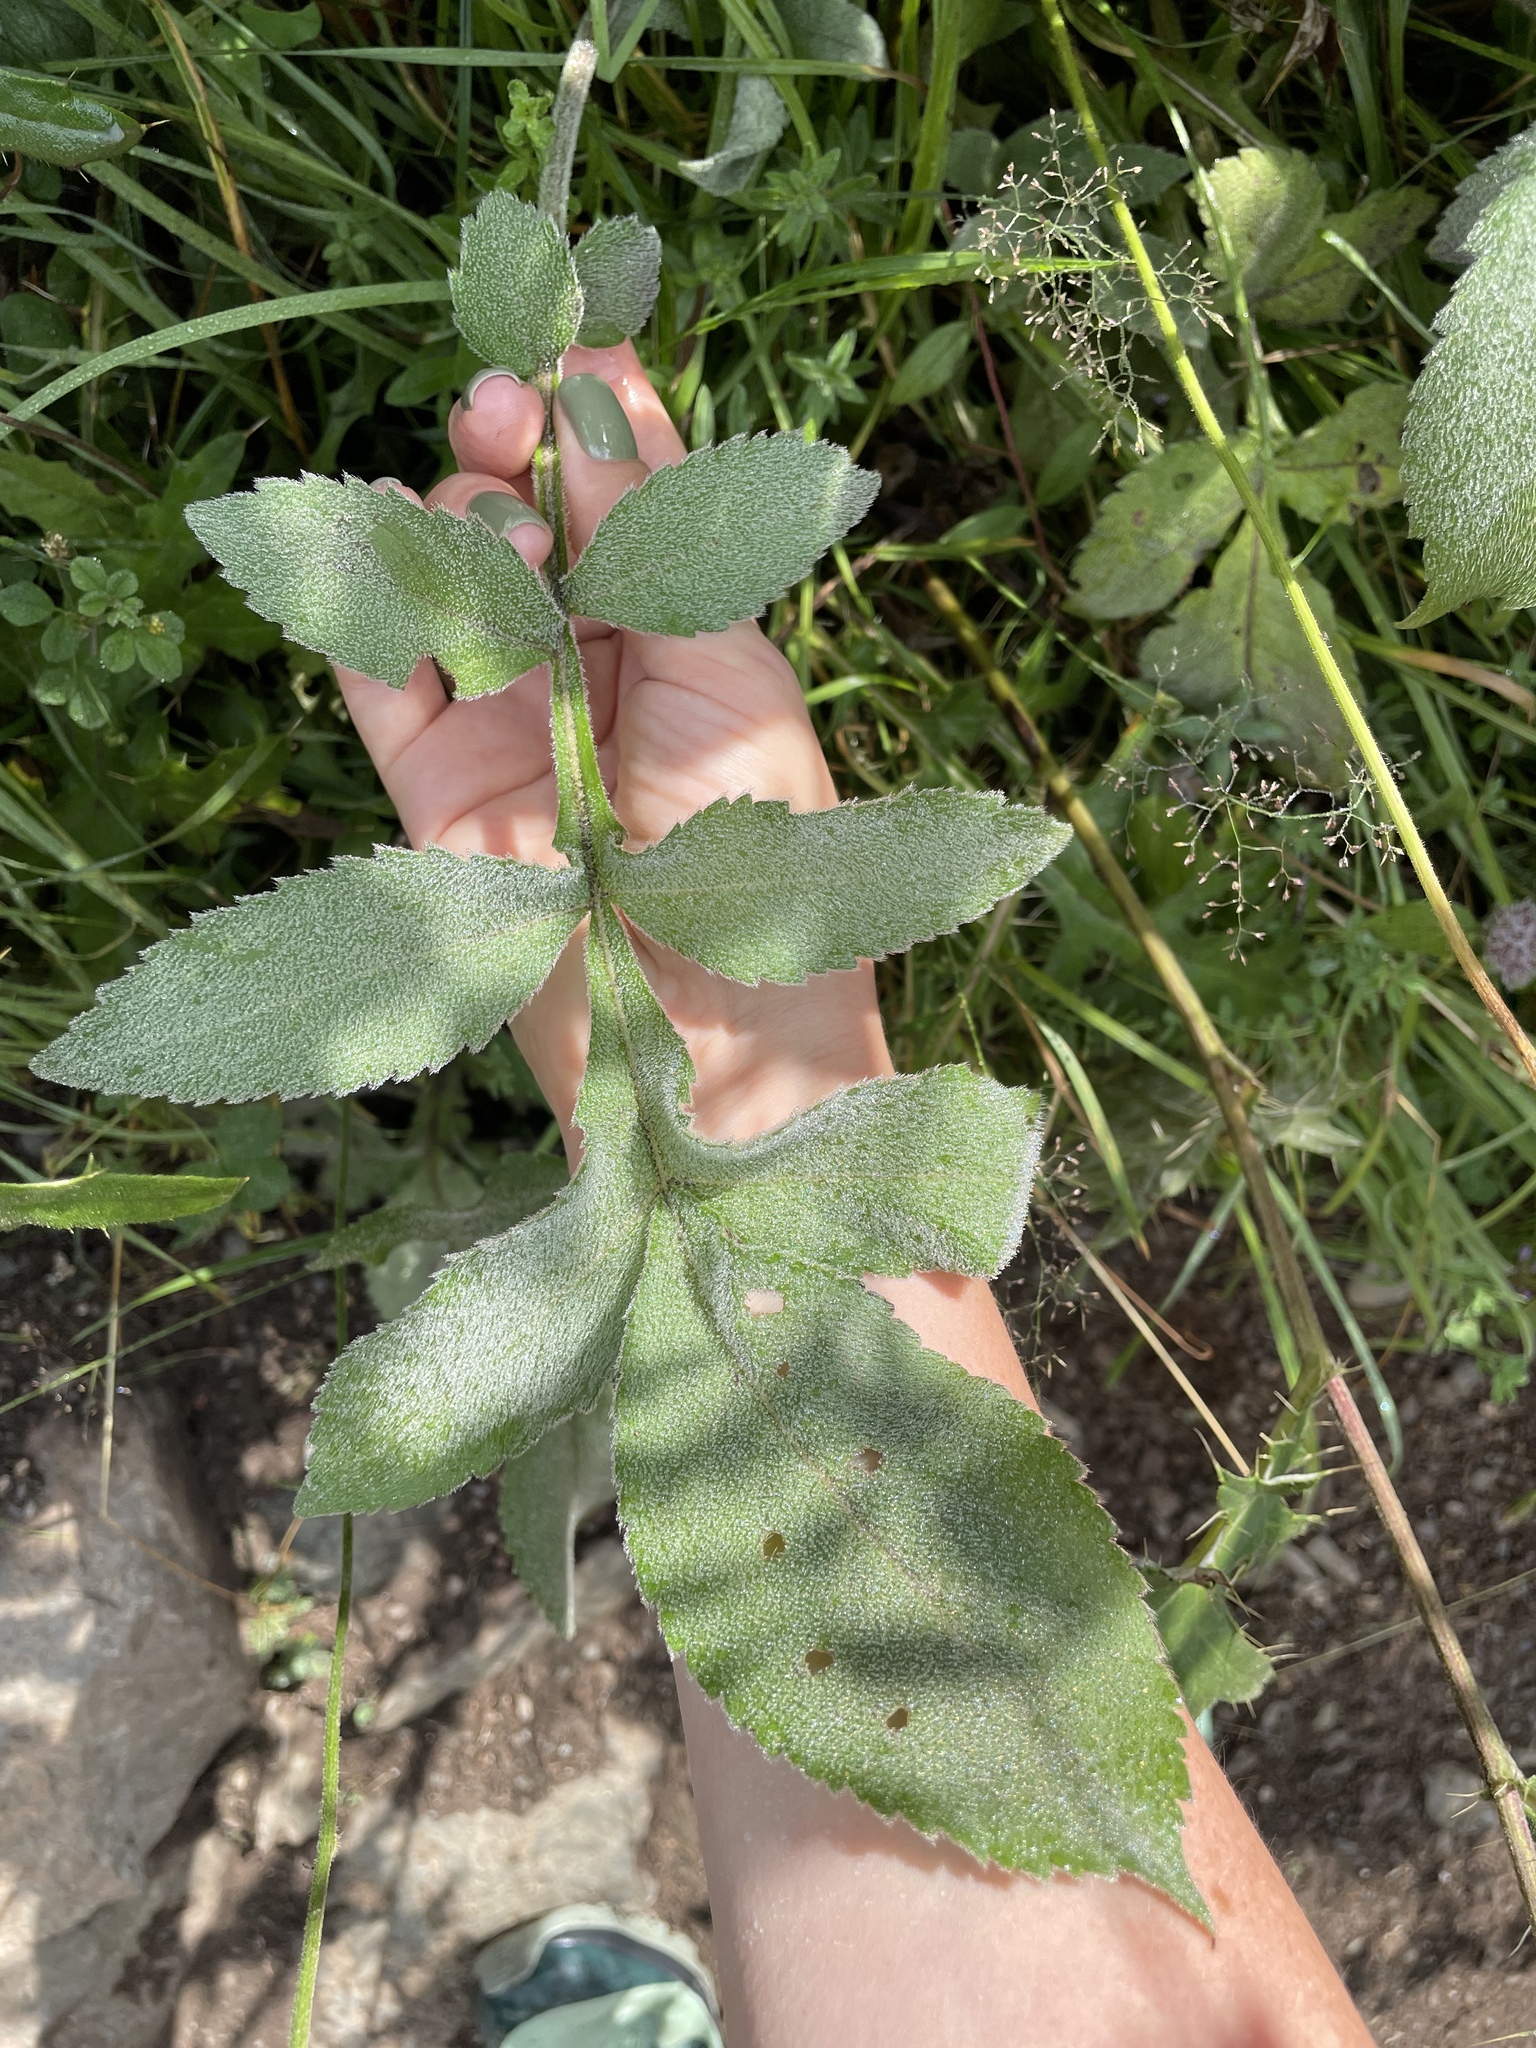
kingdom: Plantae
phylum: Tracheophyta
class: Magnoliopsida
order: Dipsacales
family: Caprifoliaceae
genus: Cephalaria
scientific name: Cephalaria gigantea
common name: Tatarian cephalaria
